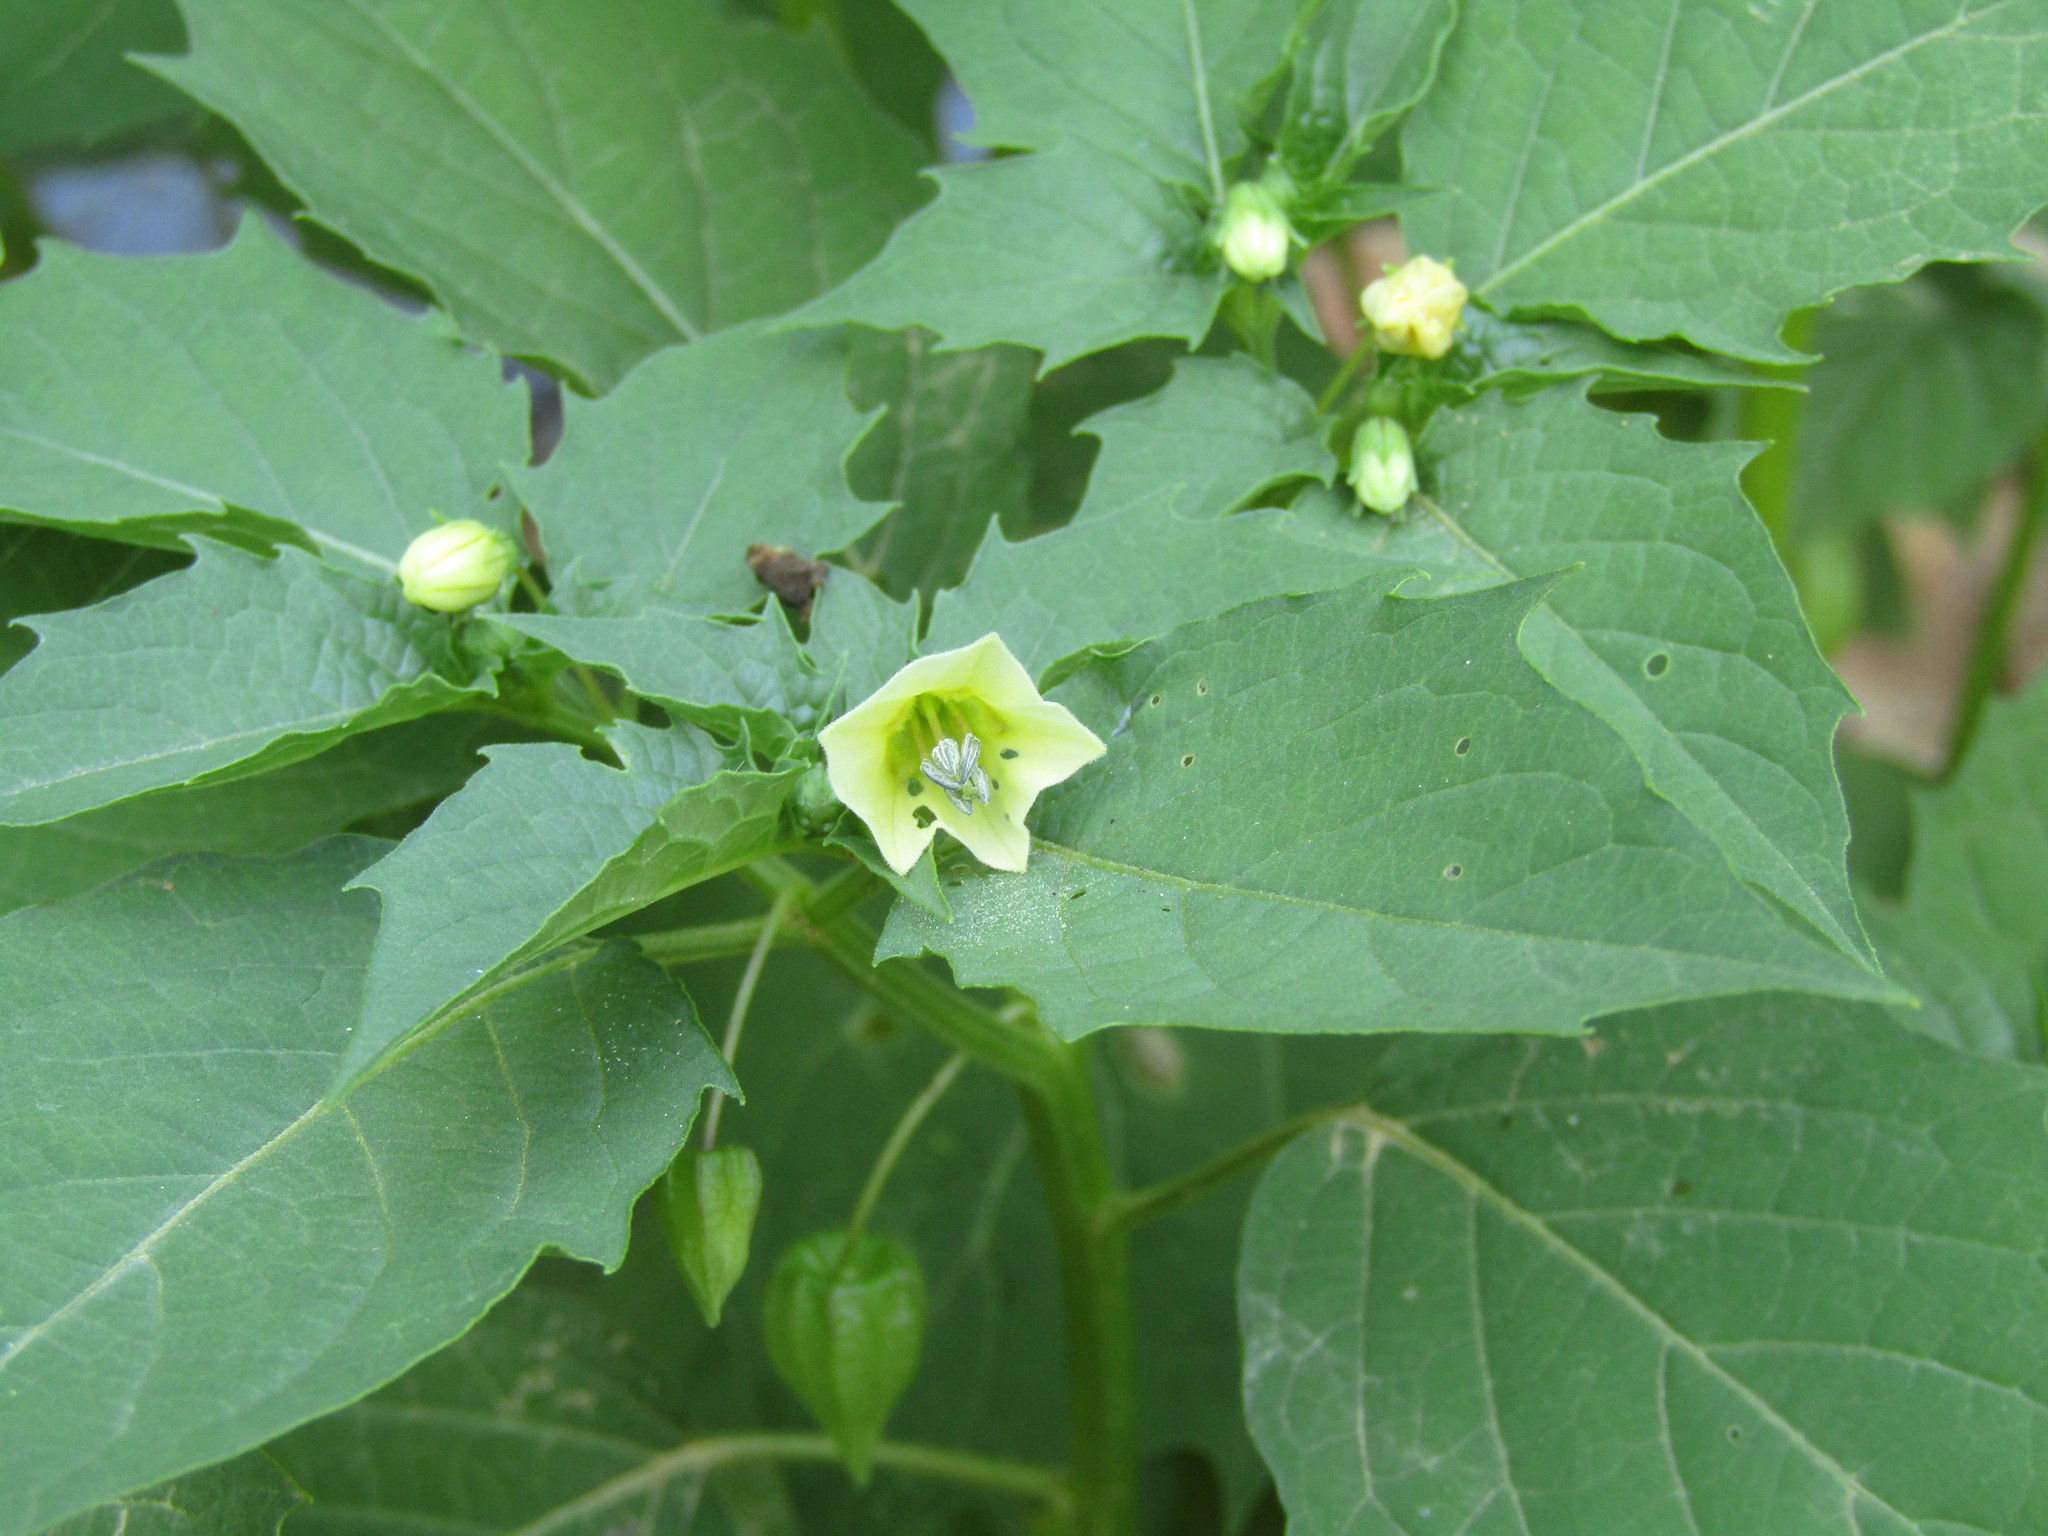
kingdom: Plantae
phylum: Tracheophyta
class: Magnoliopsida
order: Solanales
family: Solanaceae
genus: Physalis
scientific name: Physalis angulata
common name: Angular winter-cherry
